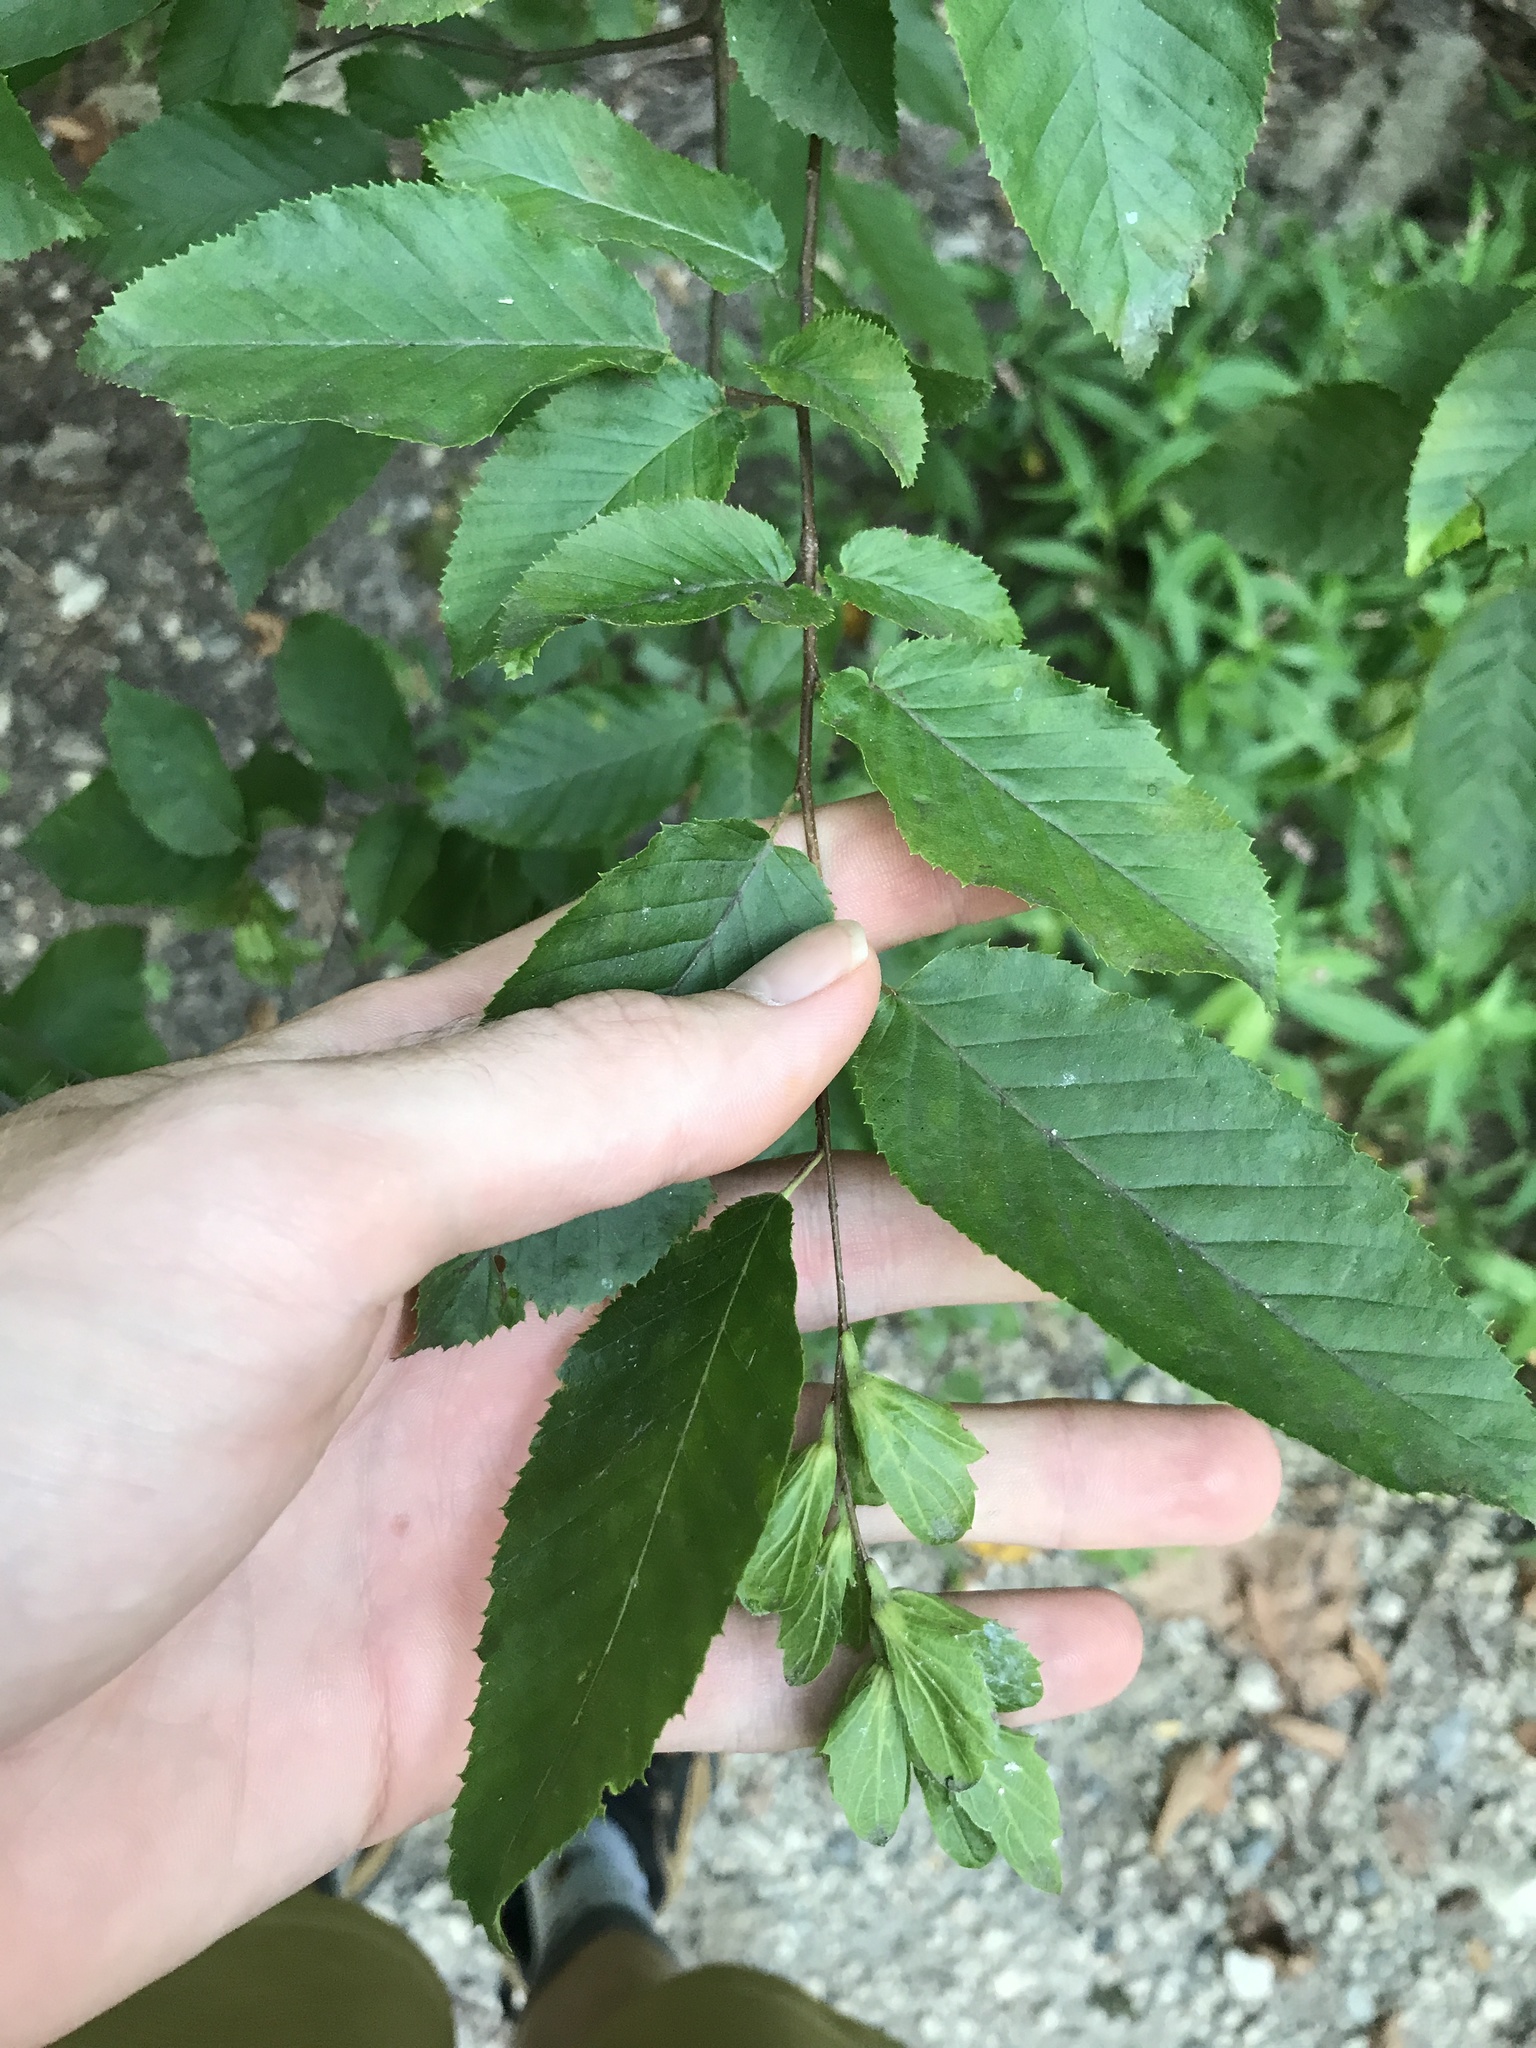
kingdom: Plantae
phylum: Tracheophyta
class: Magnoliopsida
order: Fagales
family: Betulaceae
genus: Carpinus
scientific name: Carpinus caroliniana
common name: American hornbeam
